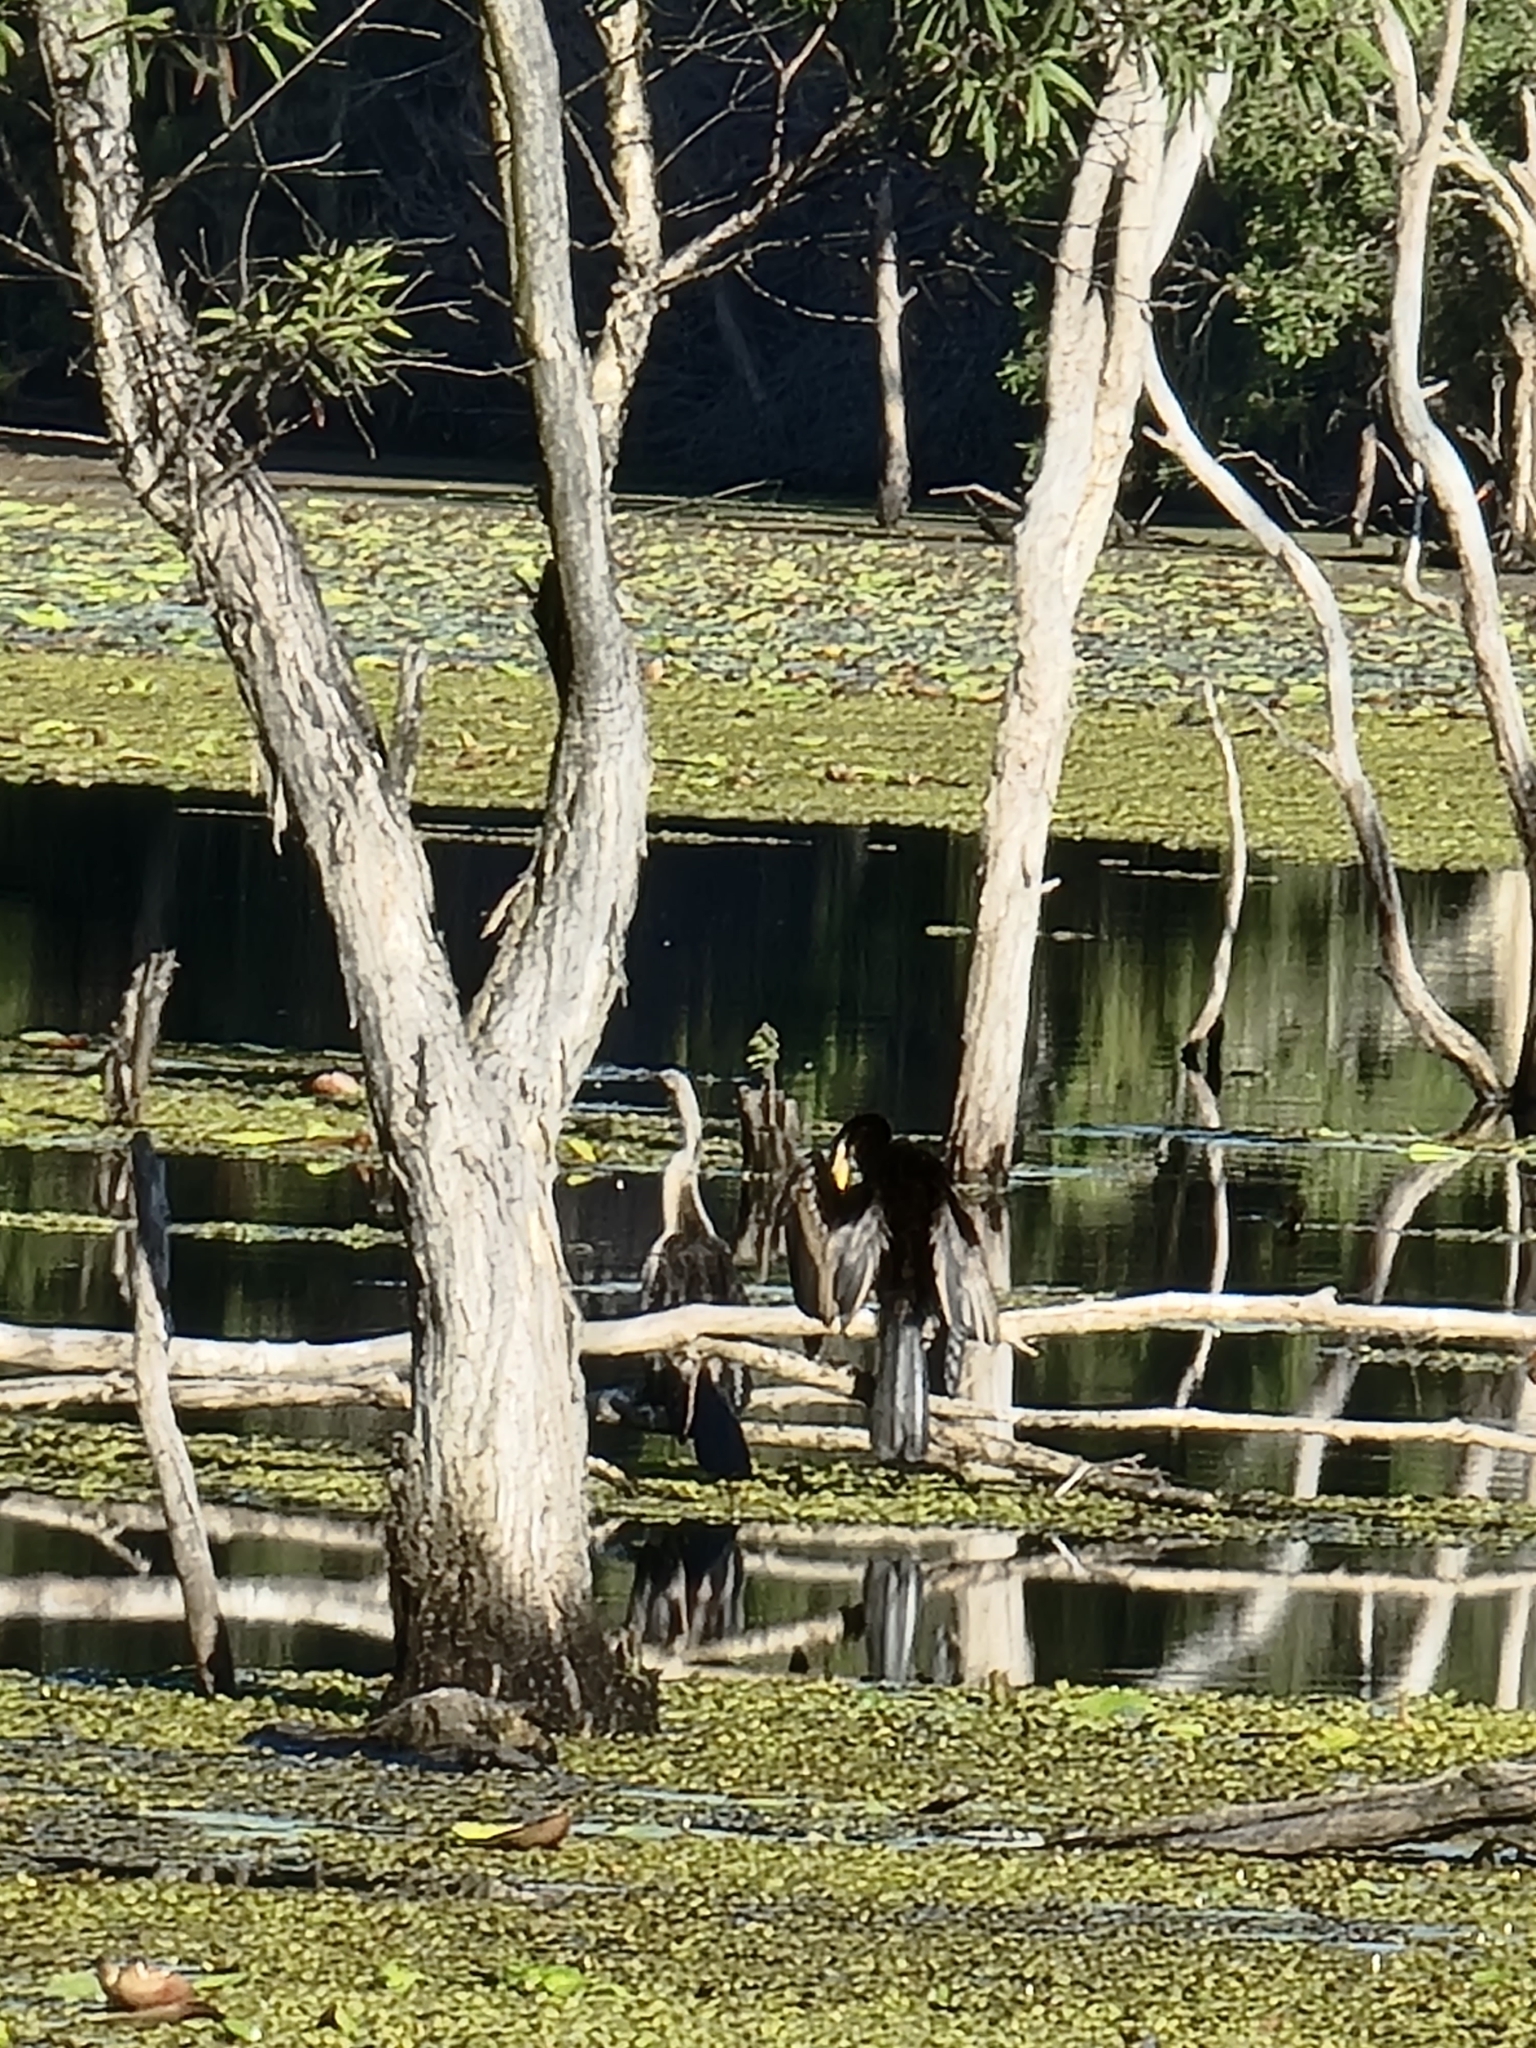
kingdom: Animalia
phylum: Chordata
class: Aves
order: Pelecaniformes
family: Ardeidae
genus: Ardea
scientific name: Ardea pacifica
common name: White-necked heron
